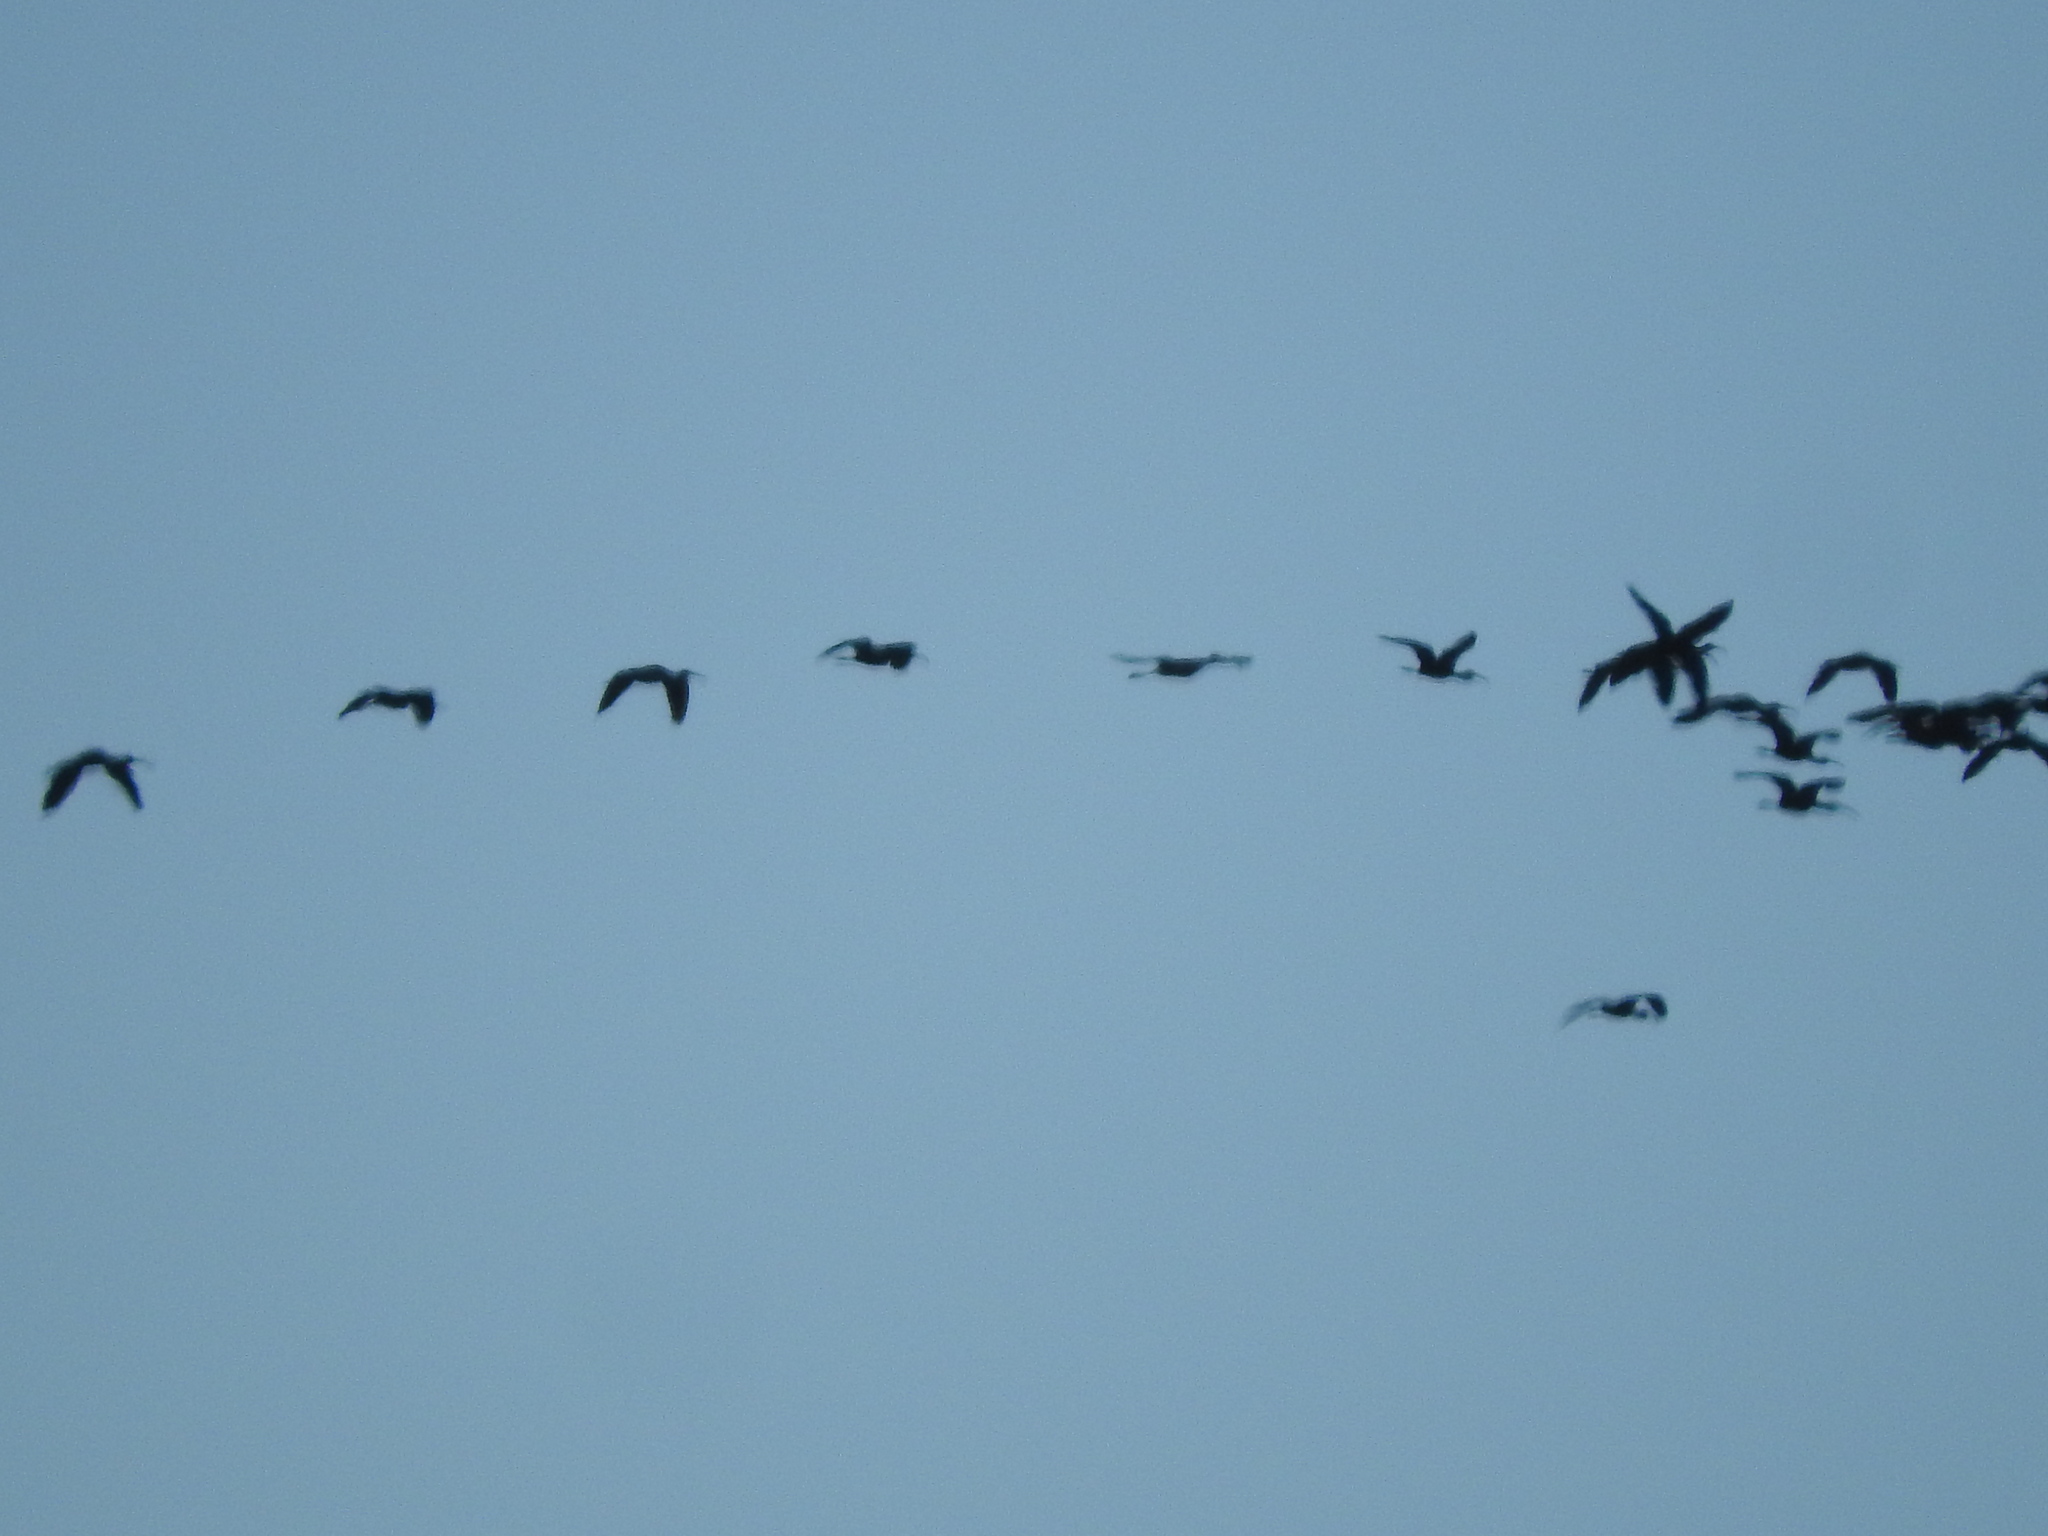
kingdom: Animalia
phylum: Chordata
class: Aves
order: Pelecaniformes
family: Threskiornithidae
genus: Plegadis
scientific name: Plegadis chihi
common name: White-faced ibis
